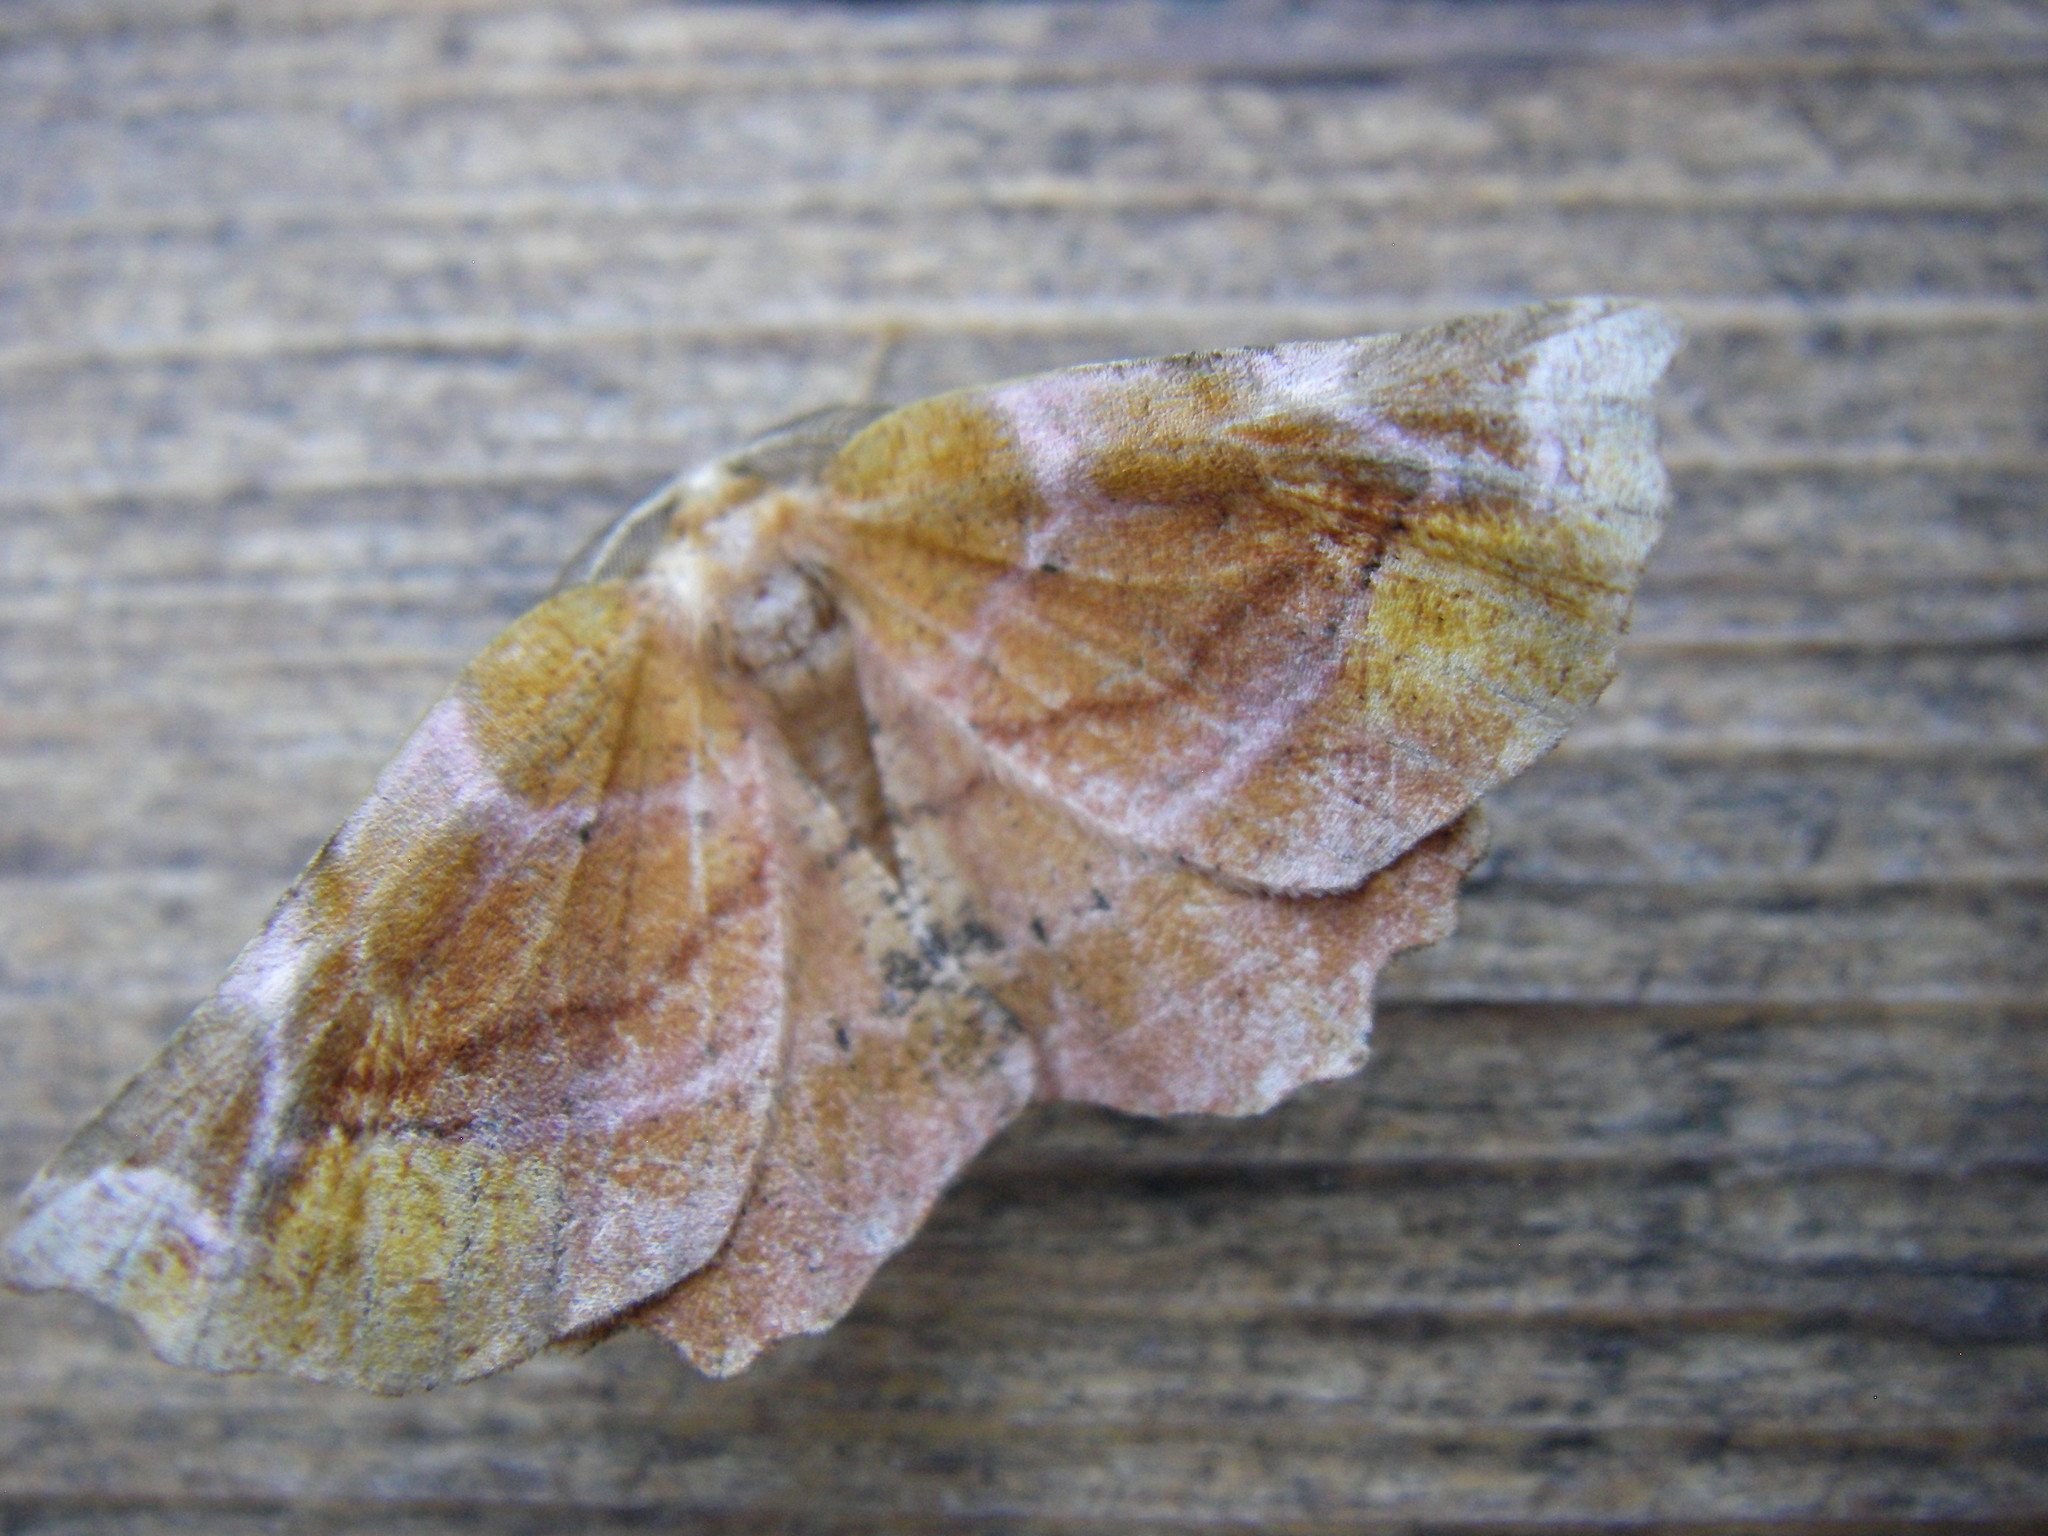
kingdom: Animalia
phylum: Arthropoda
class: Insecta
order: Lepidoptera
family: Geometridae
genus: Apeira
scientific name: Apeira syringaria
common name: Lilac beauty
